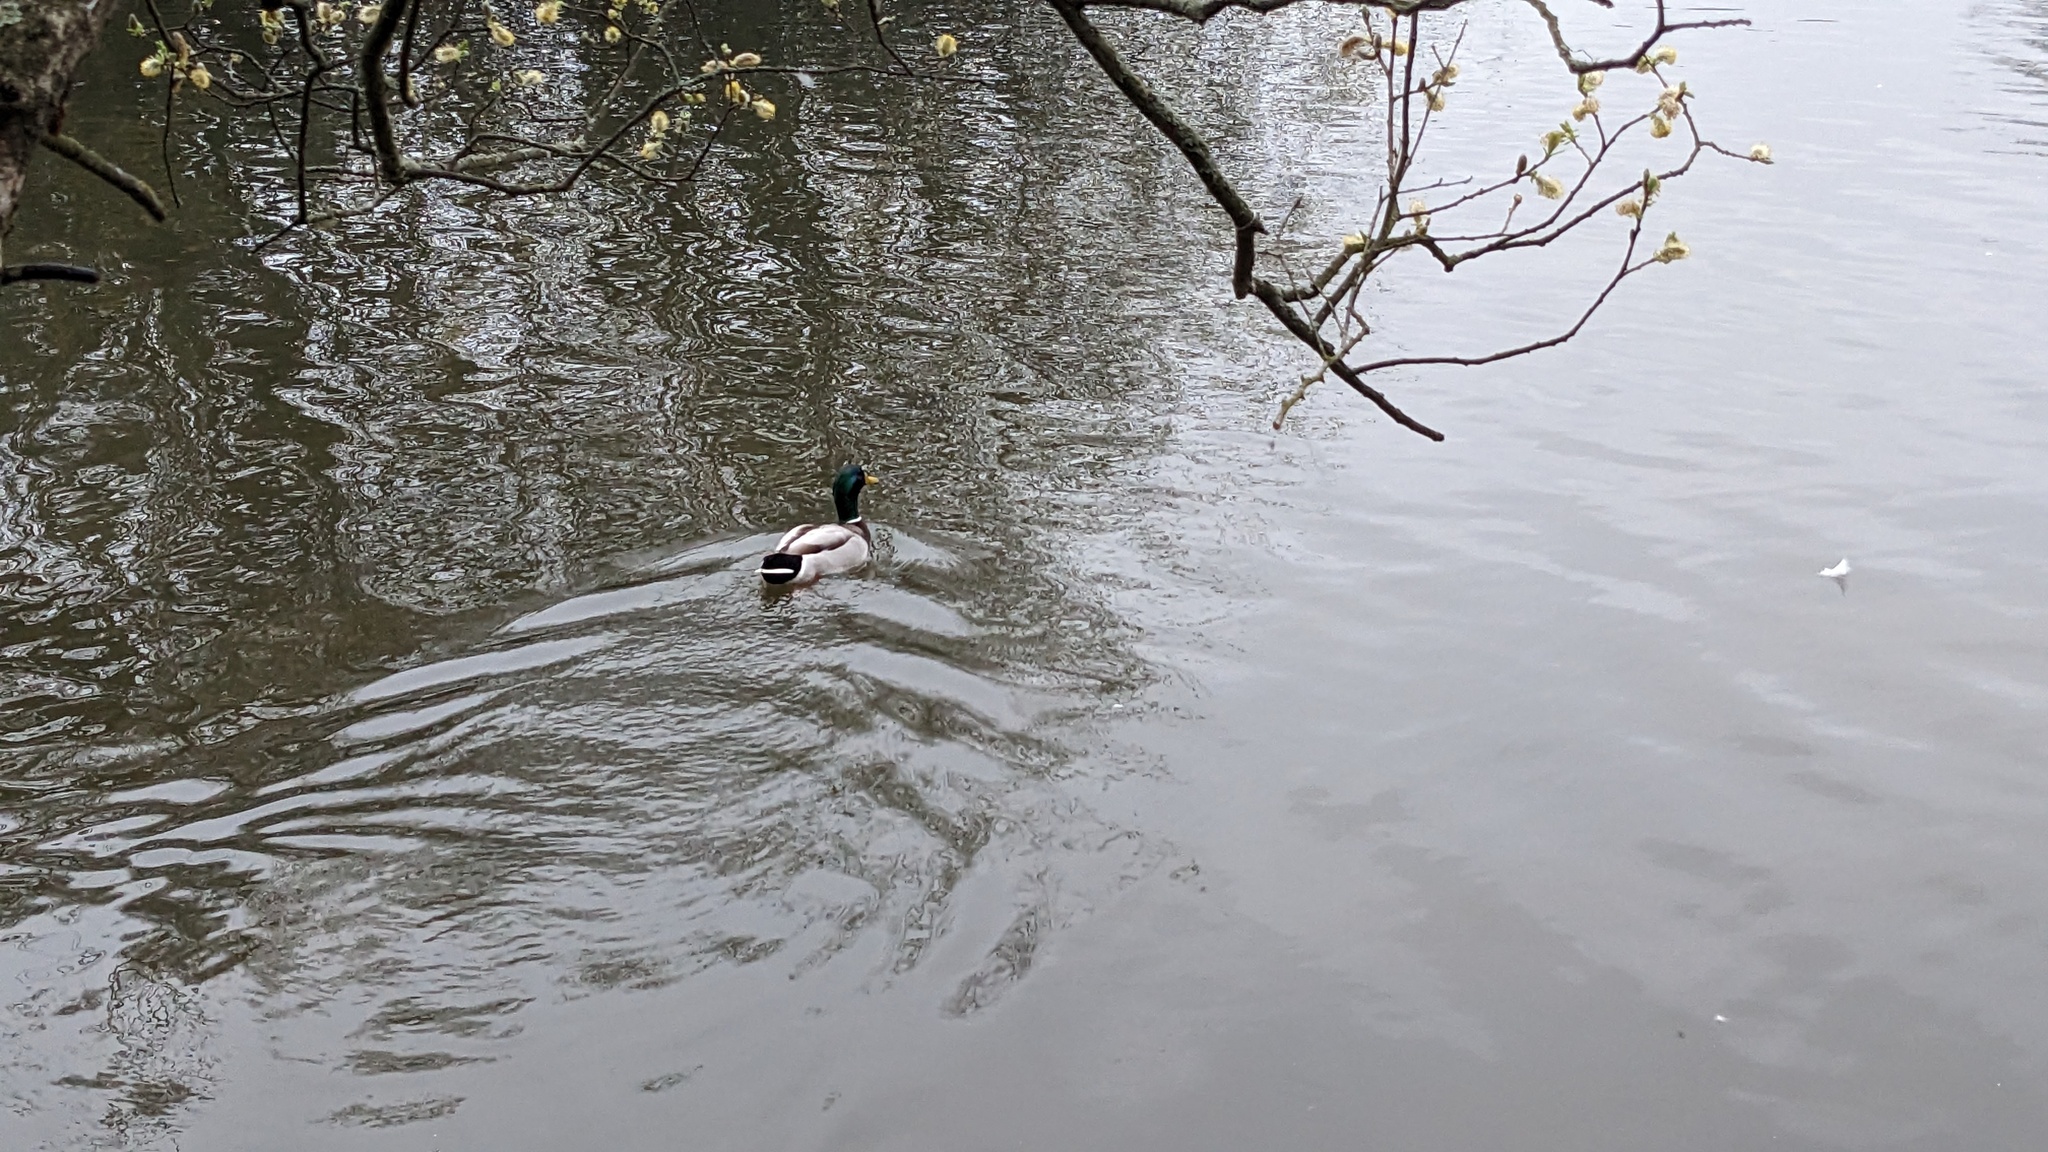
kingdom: Animalia
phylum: Chordata
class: Aves
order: Anseriformes
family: Anatidae
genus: Anas
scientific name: Anas platyrhynchos
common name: Mallard
